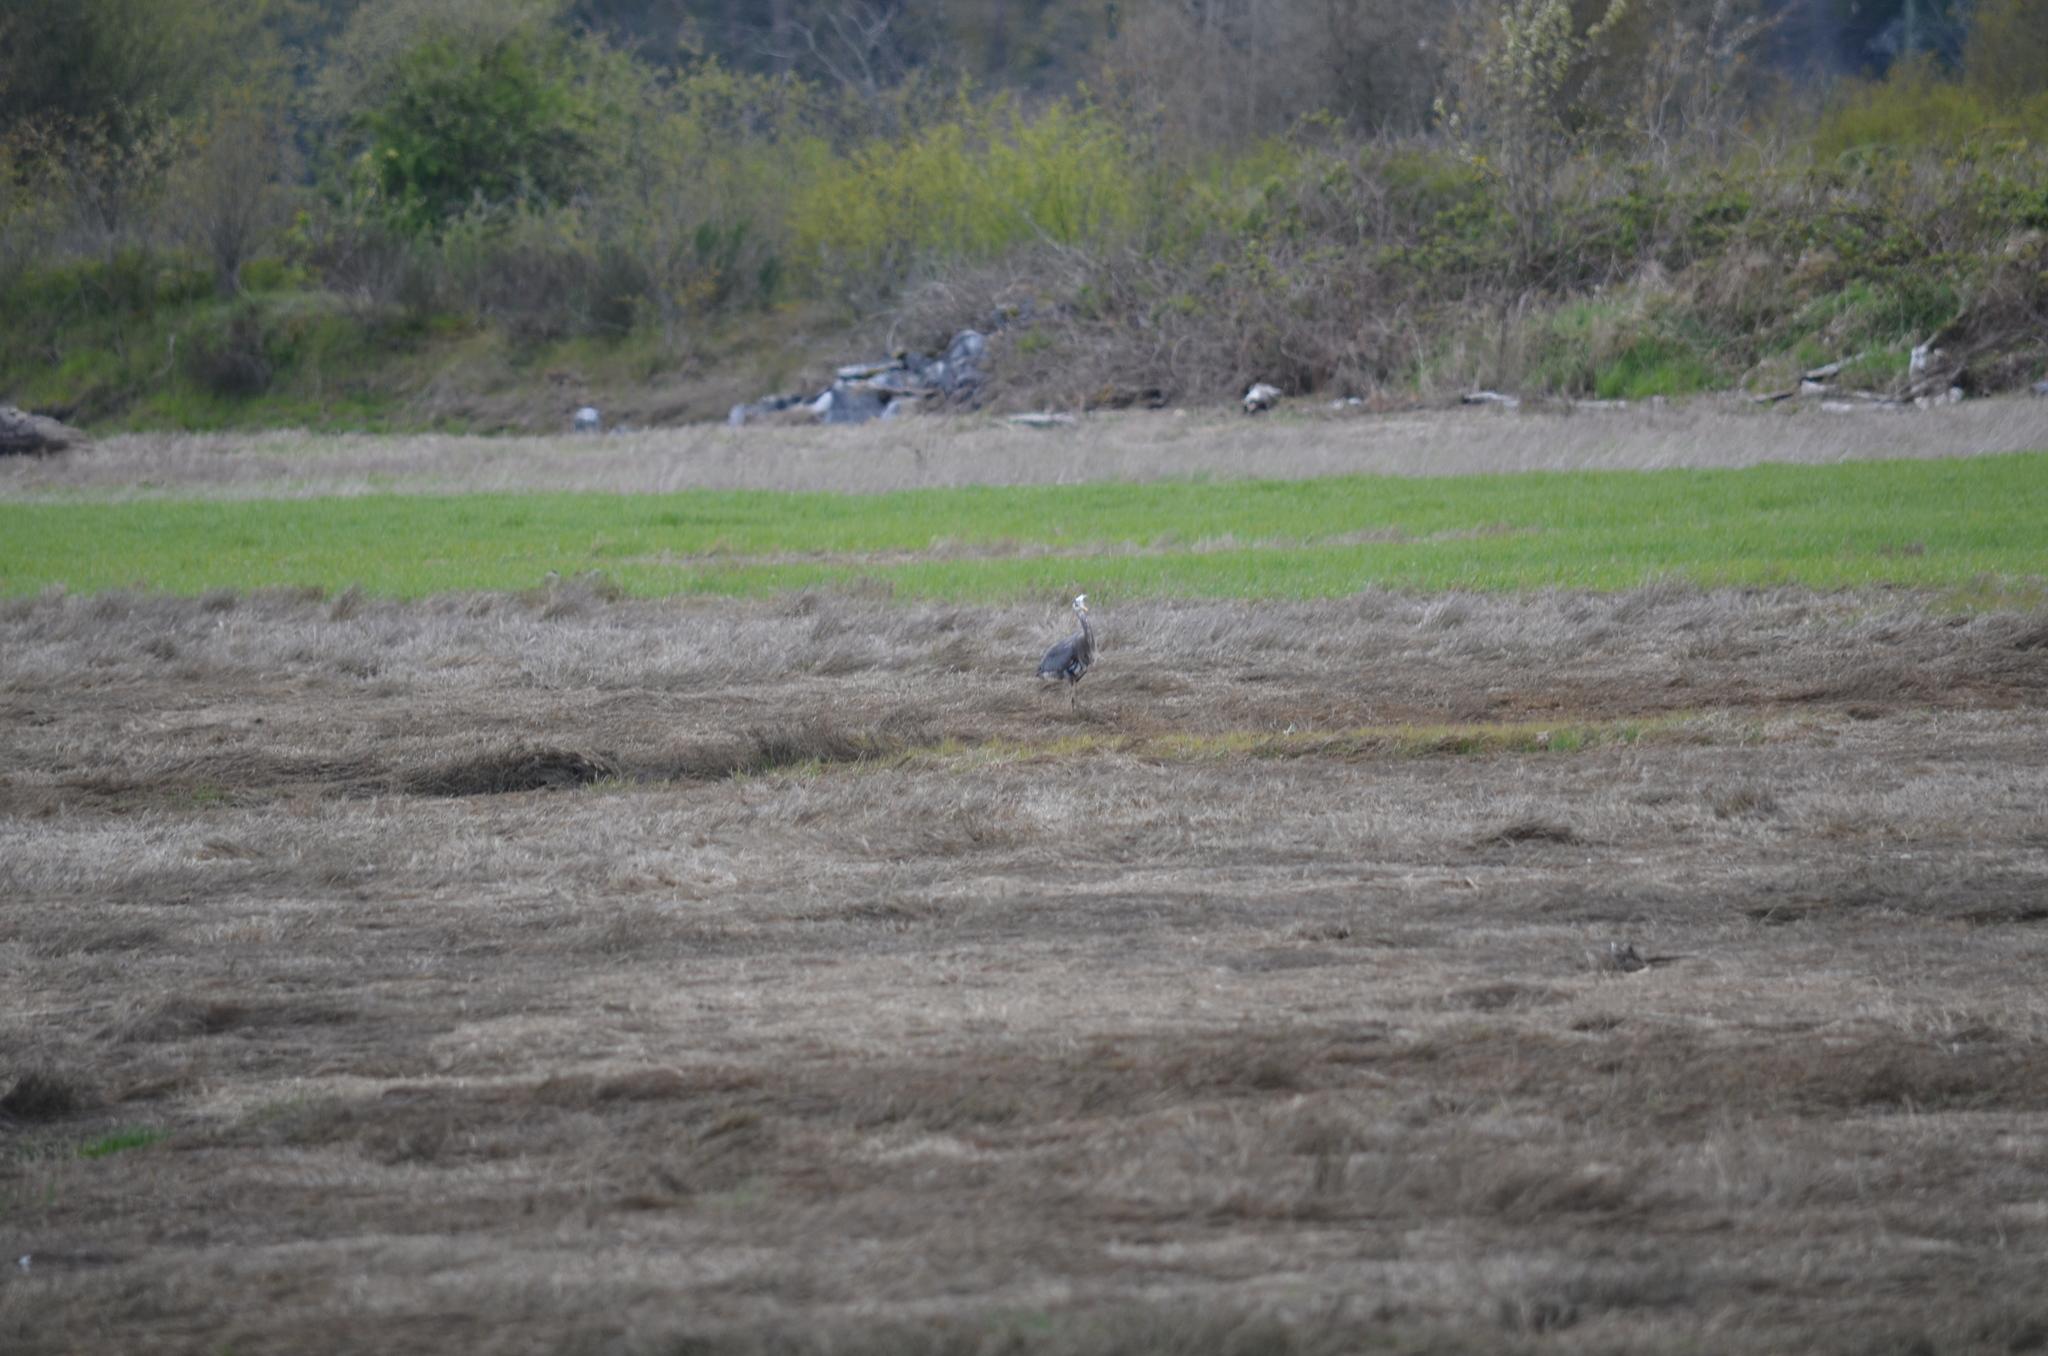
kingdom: Animalia
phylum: Chordata
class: Aves
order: Pelecaniformes
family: Ardeidae
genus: Ardea
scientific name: Ardea herodias
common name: Great blue heron
